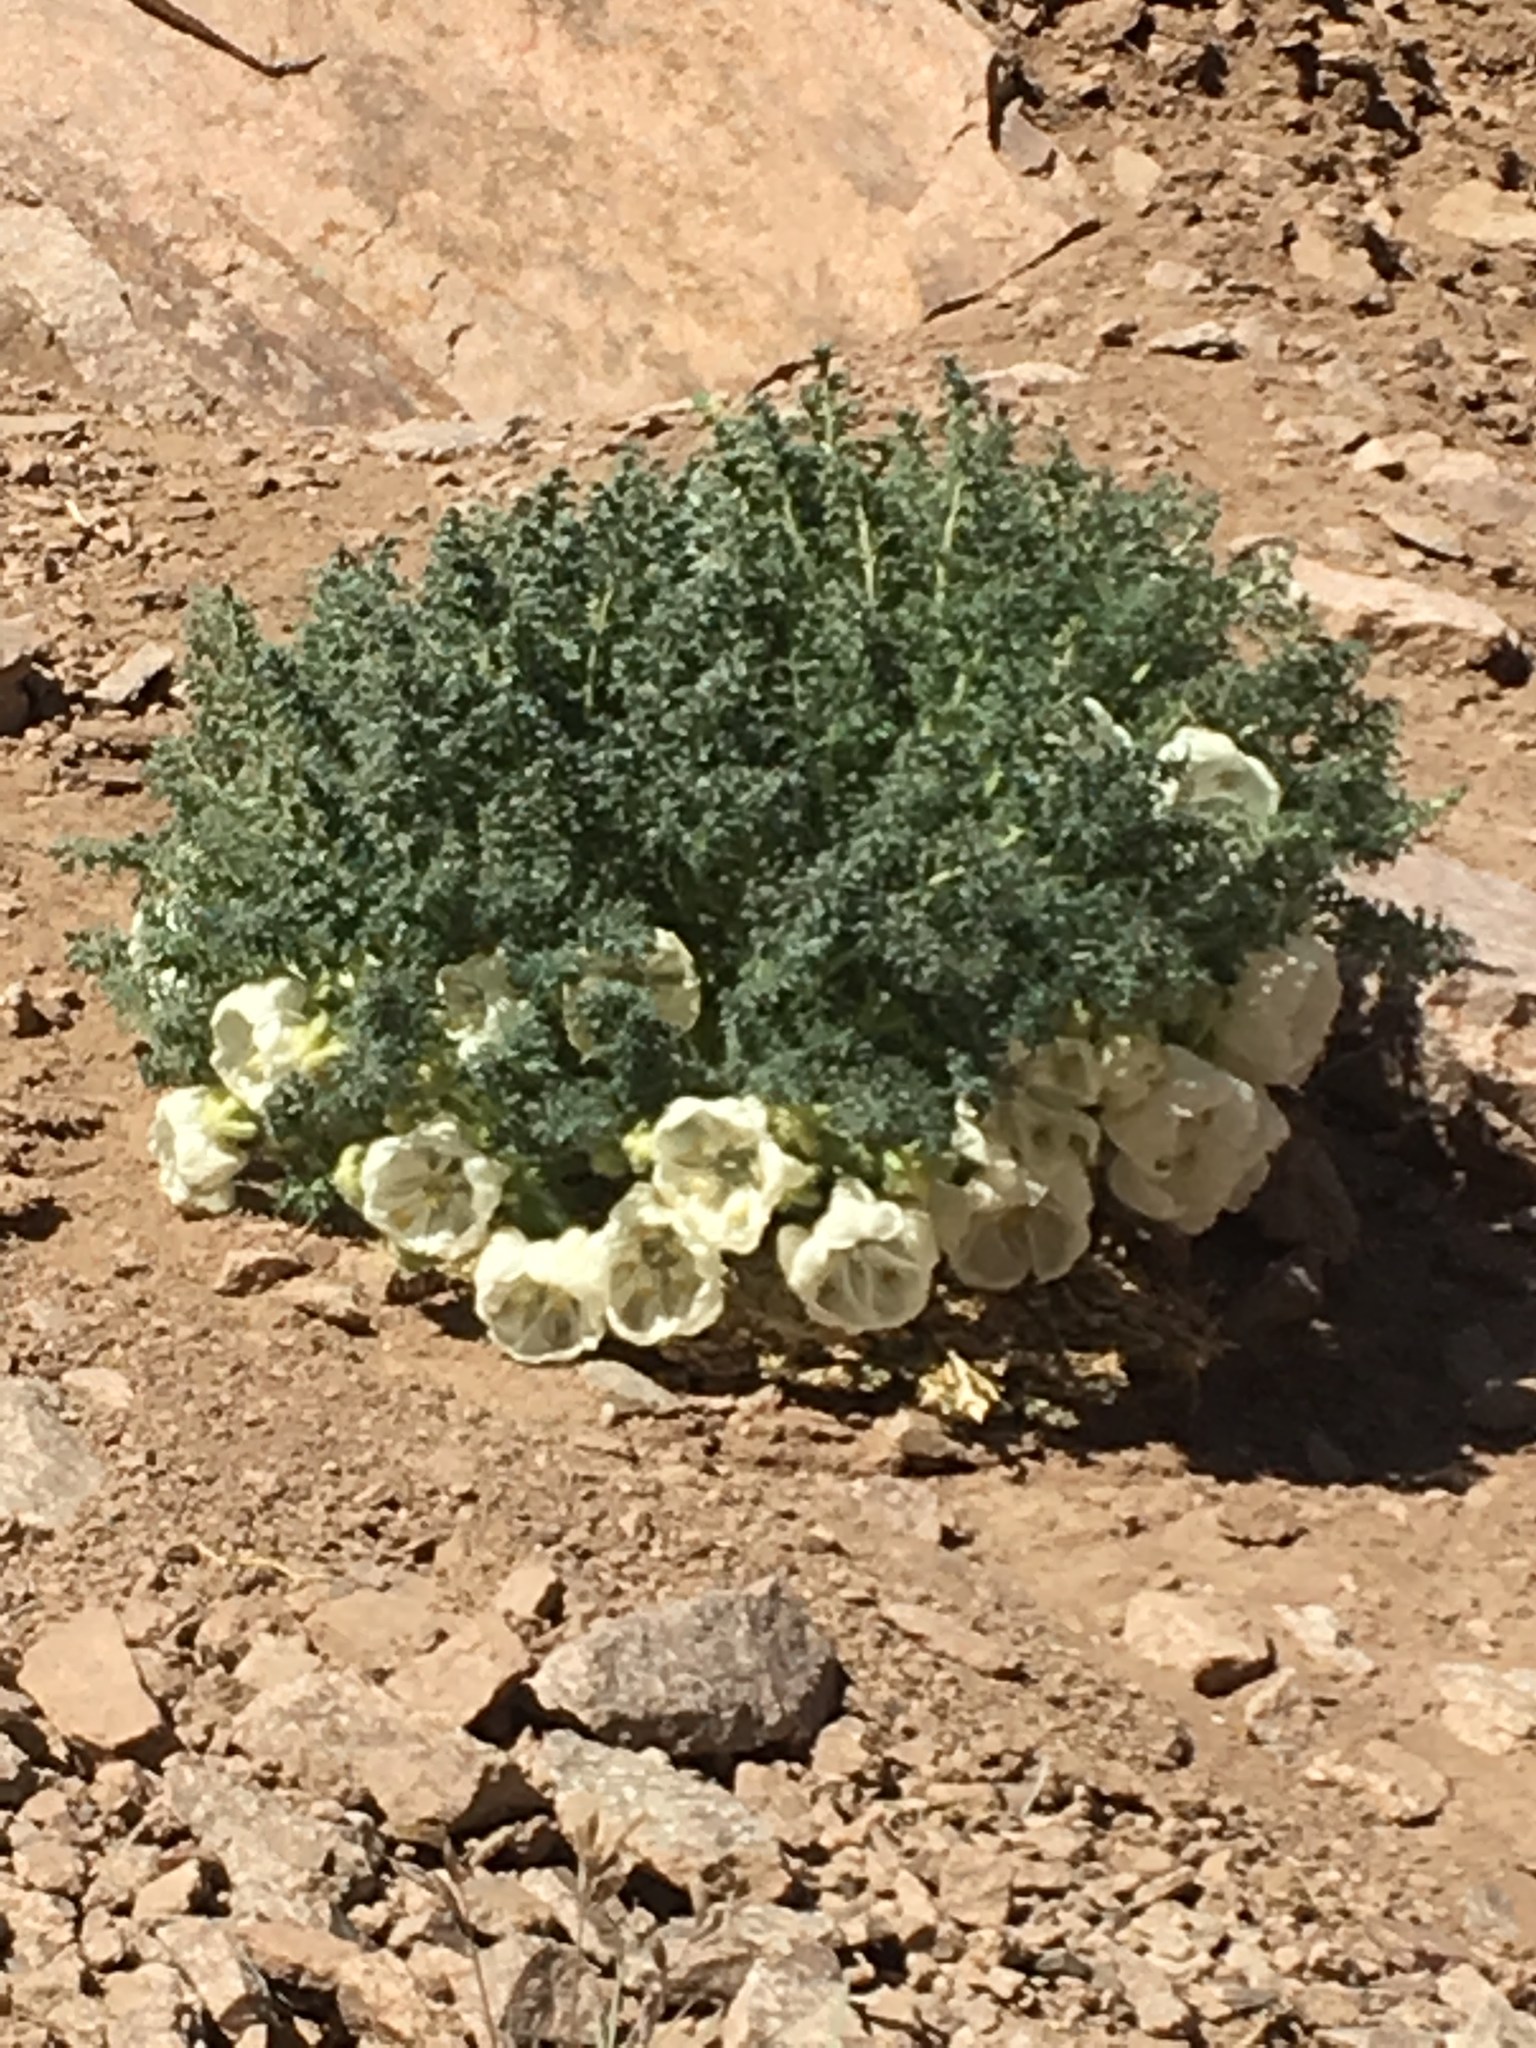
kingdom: Plantae
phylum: Tracheophyta
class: Magnoliopsida
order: Cornales
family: Loasaceae
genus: Caiophora
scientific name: Caiophora coronata
